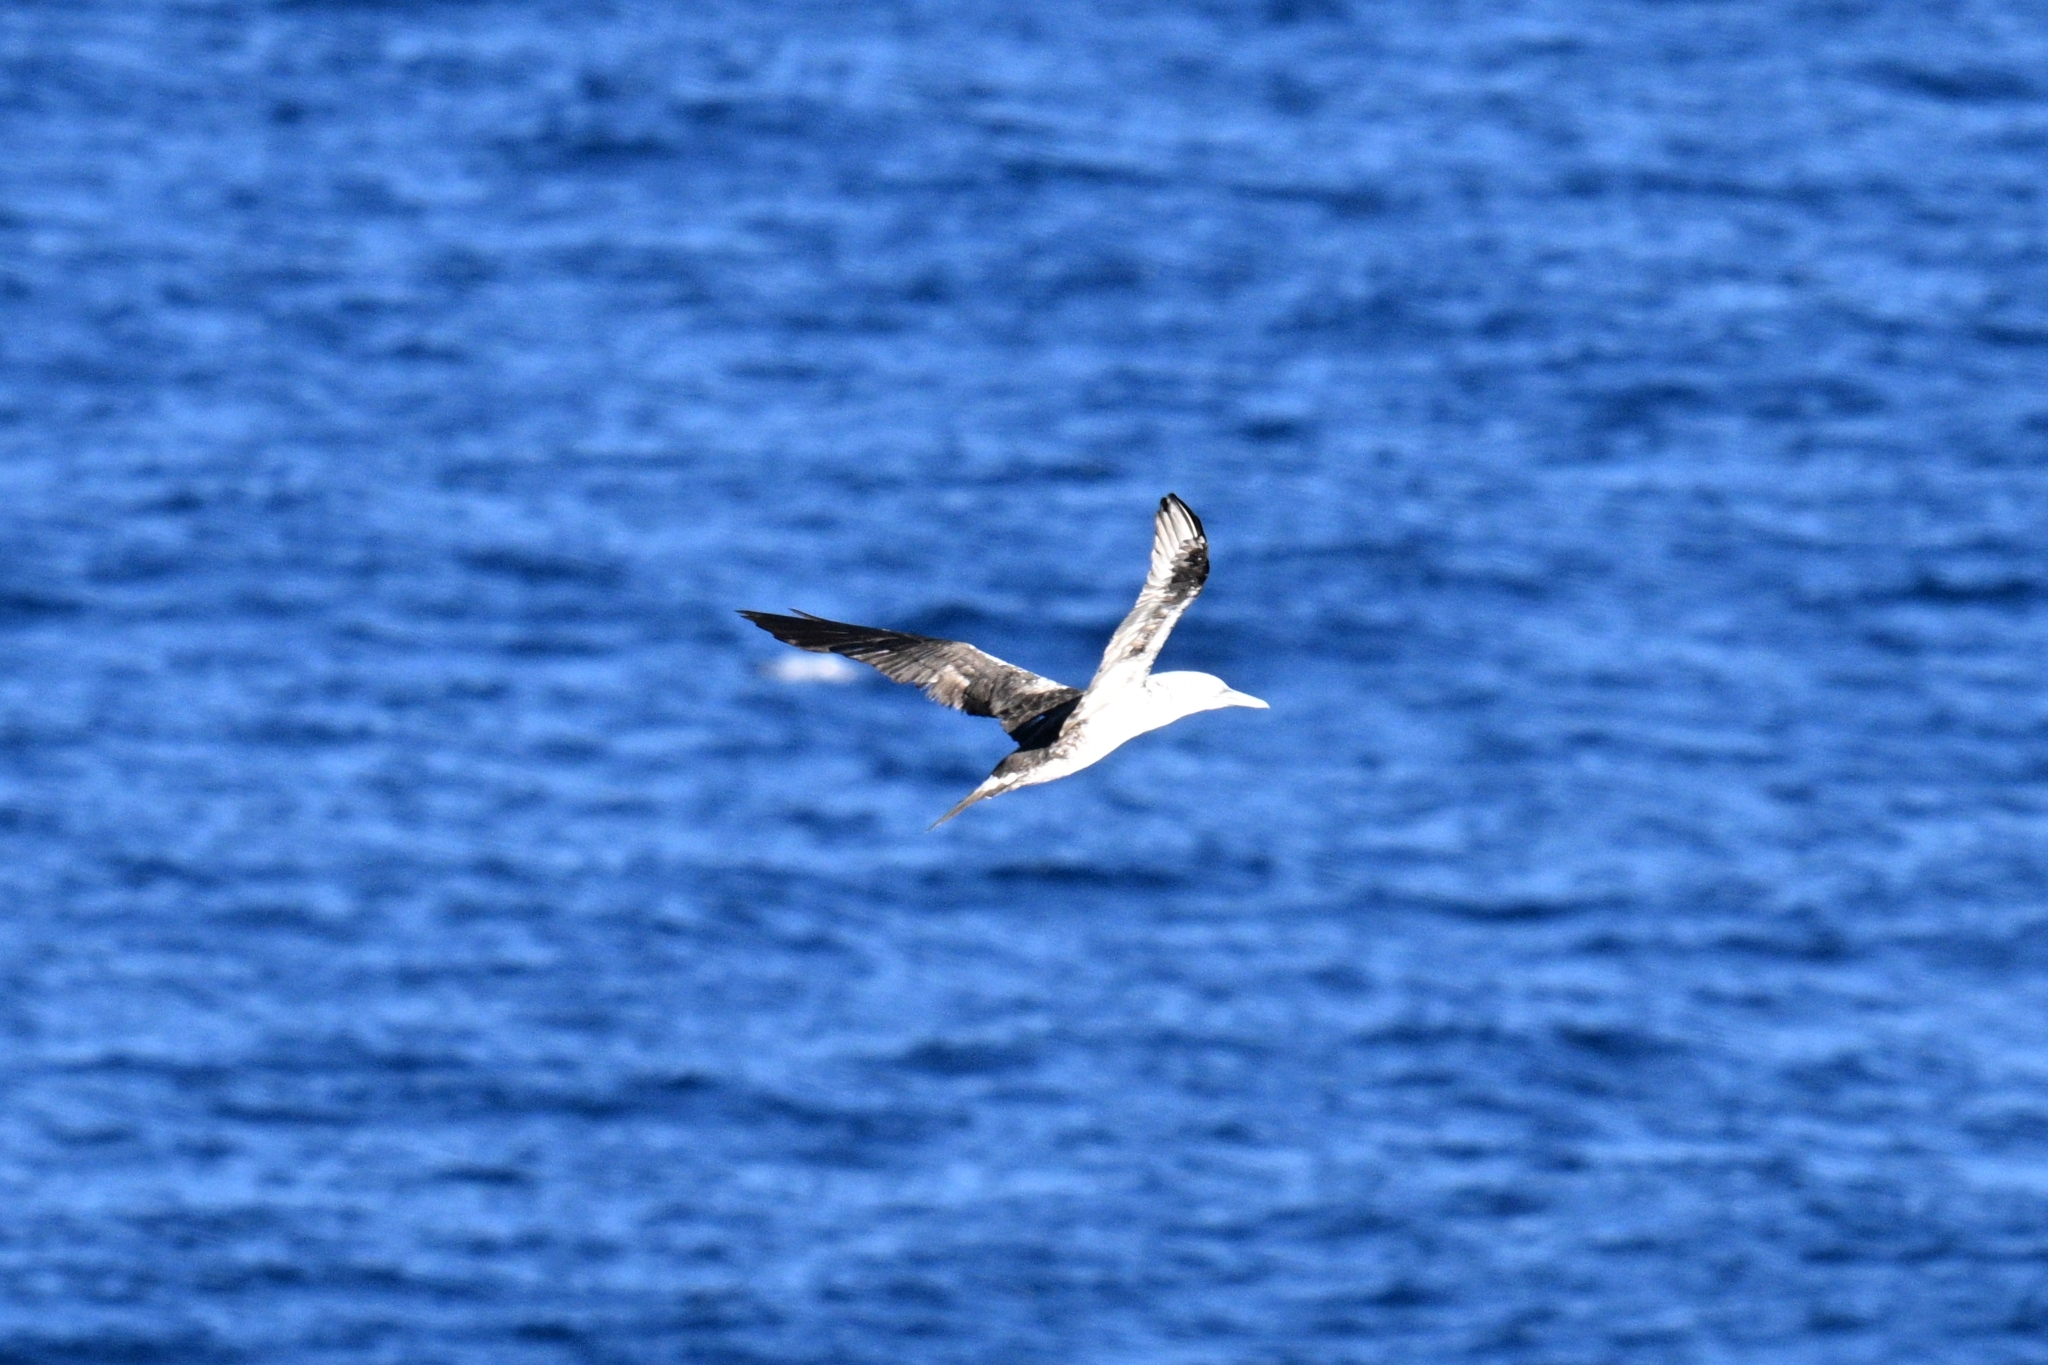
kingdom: Animalia
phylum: Chordata
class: Aves
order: Suliformes
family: Sulidae
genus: Morus
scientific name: Morus bassanus
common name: Northern gannet
